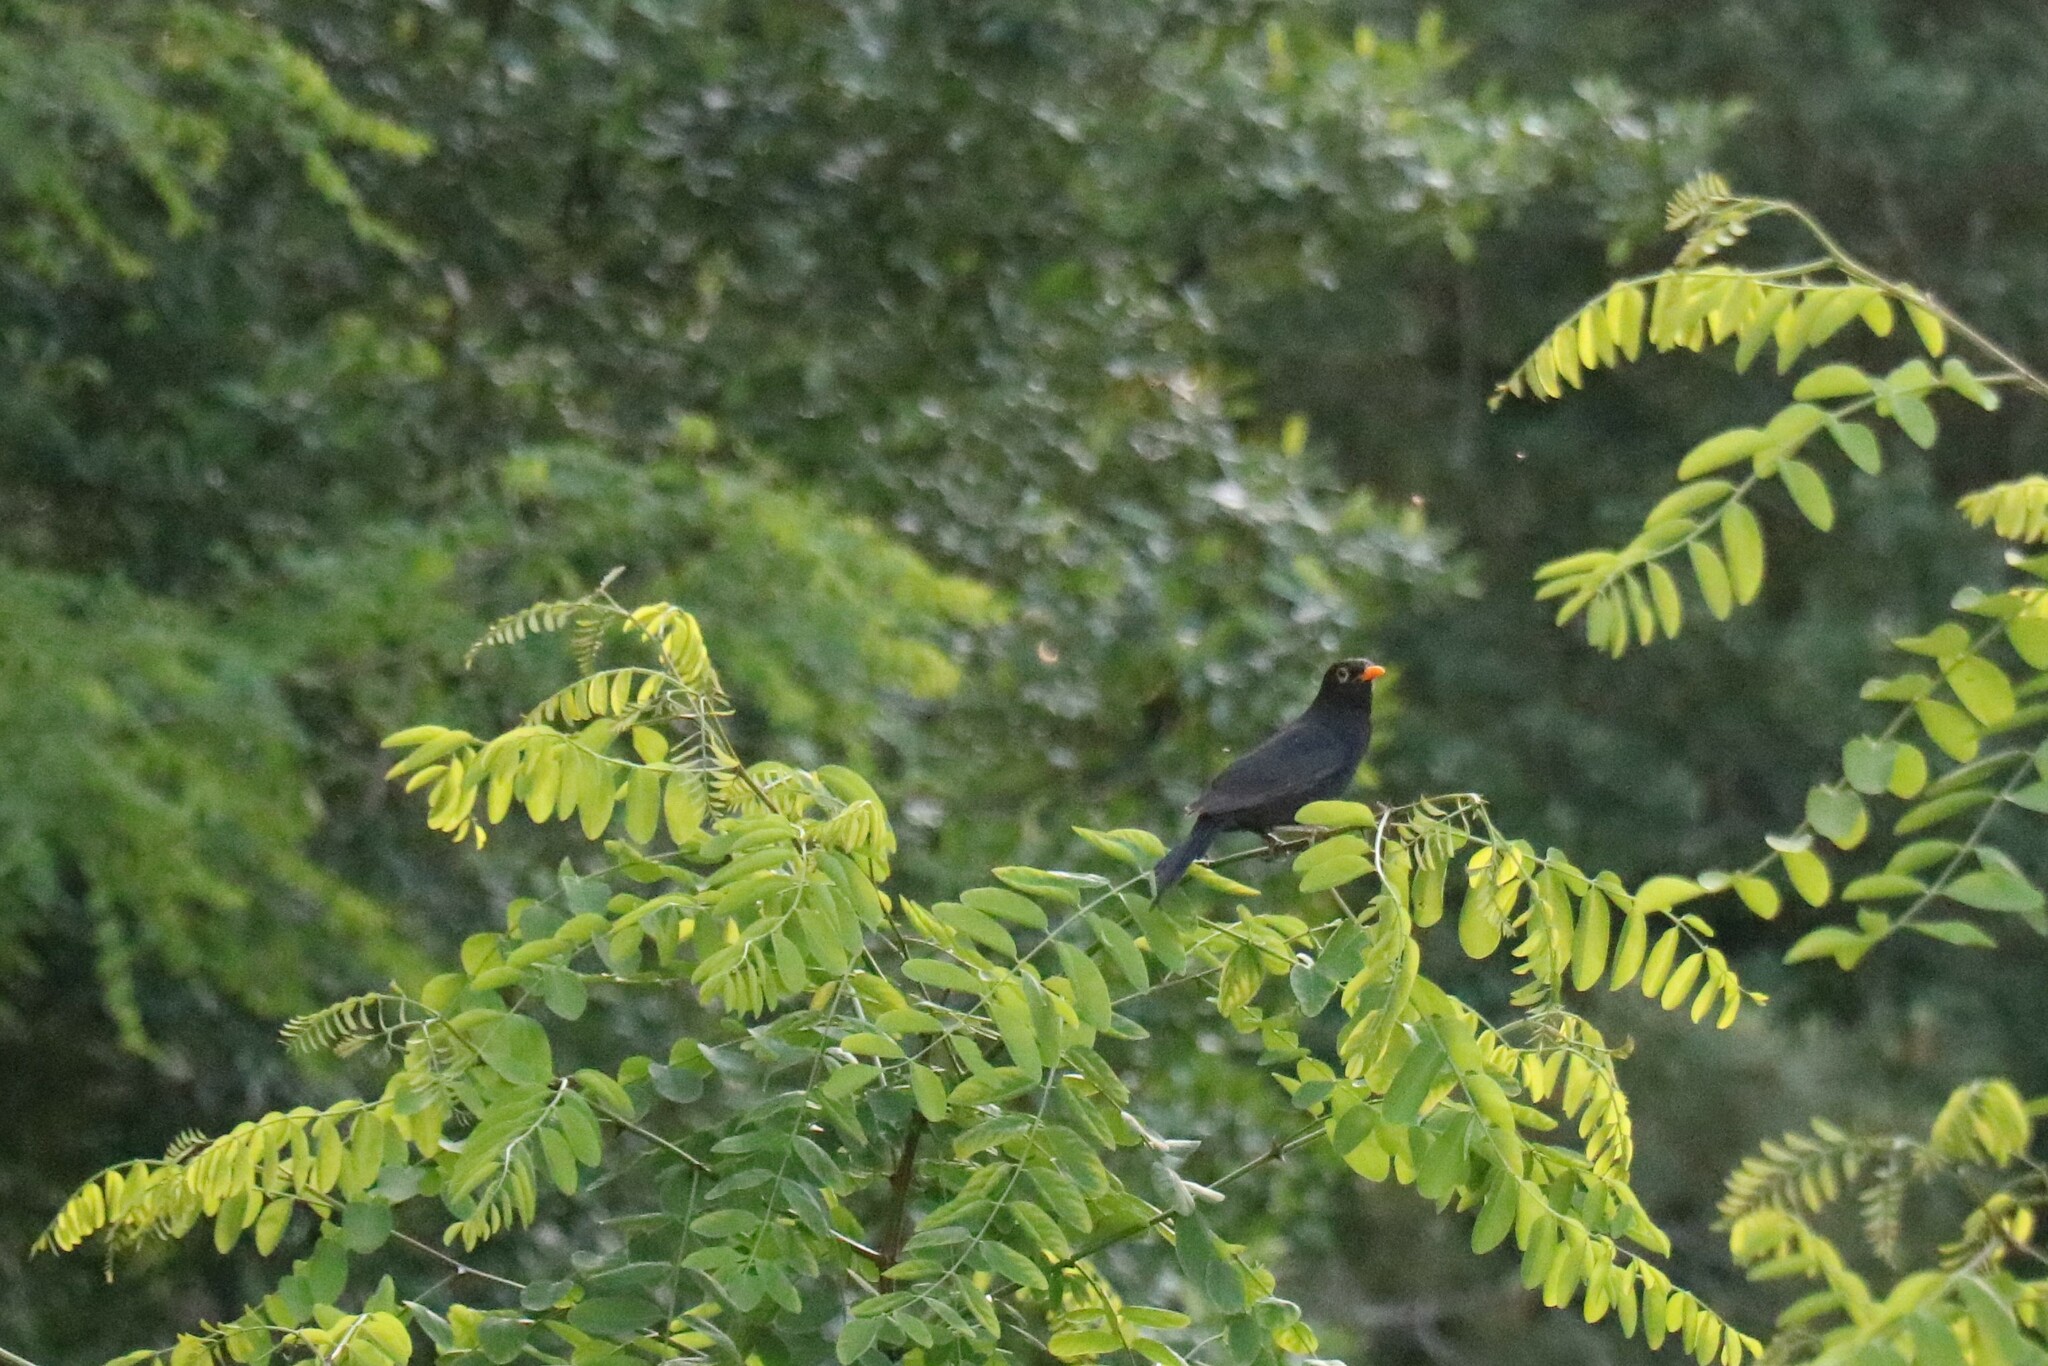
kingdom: Animalia
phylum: Chordata
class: Aves
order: Passeriformes
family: Turdidae
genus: Turdus
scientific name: Turdus merula
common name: Common blackbird
